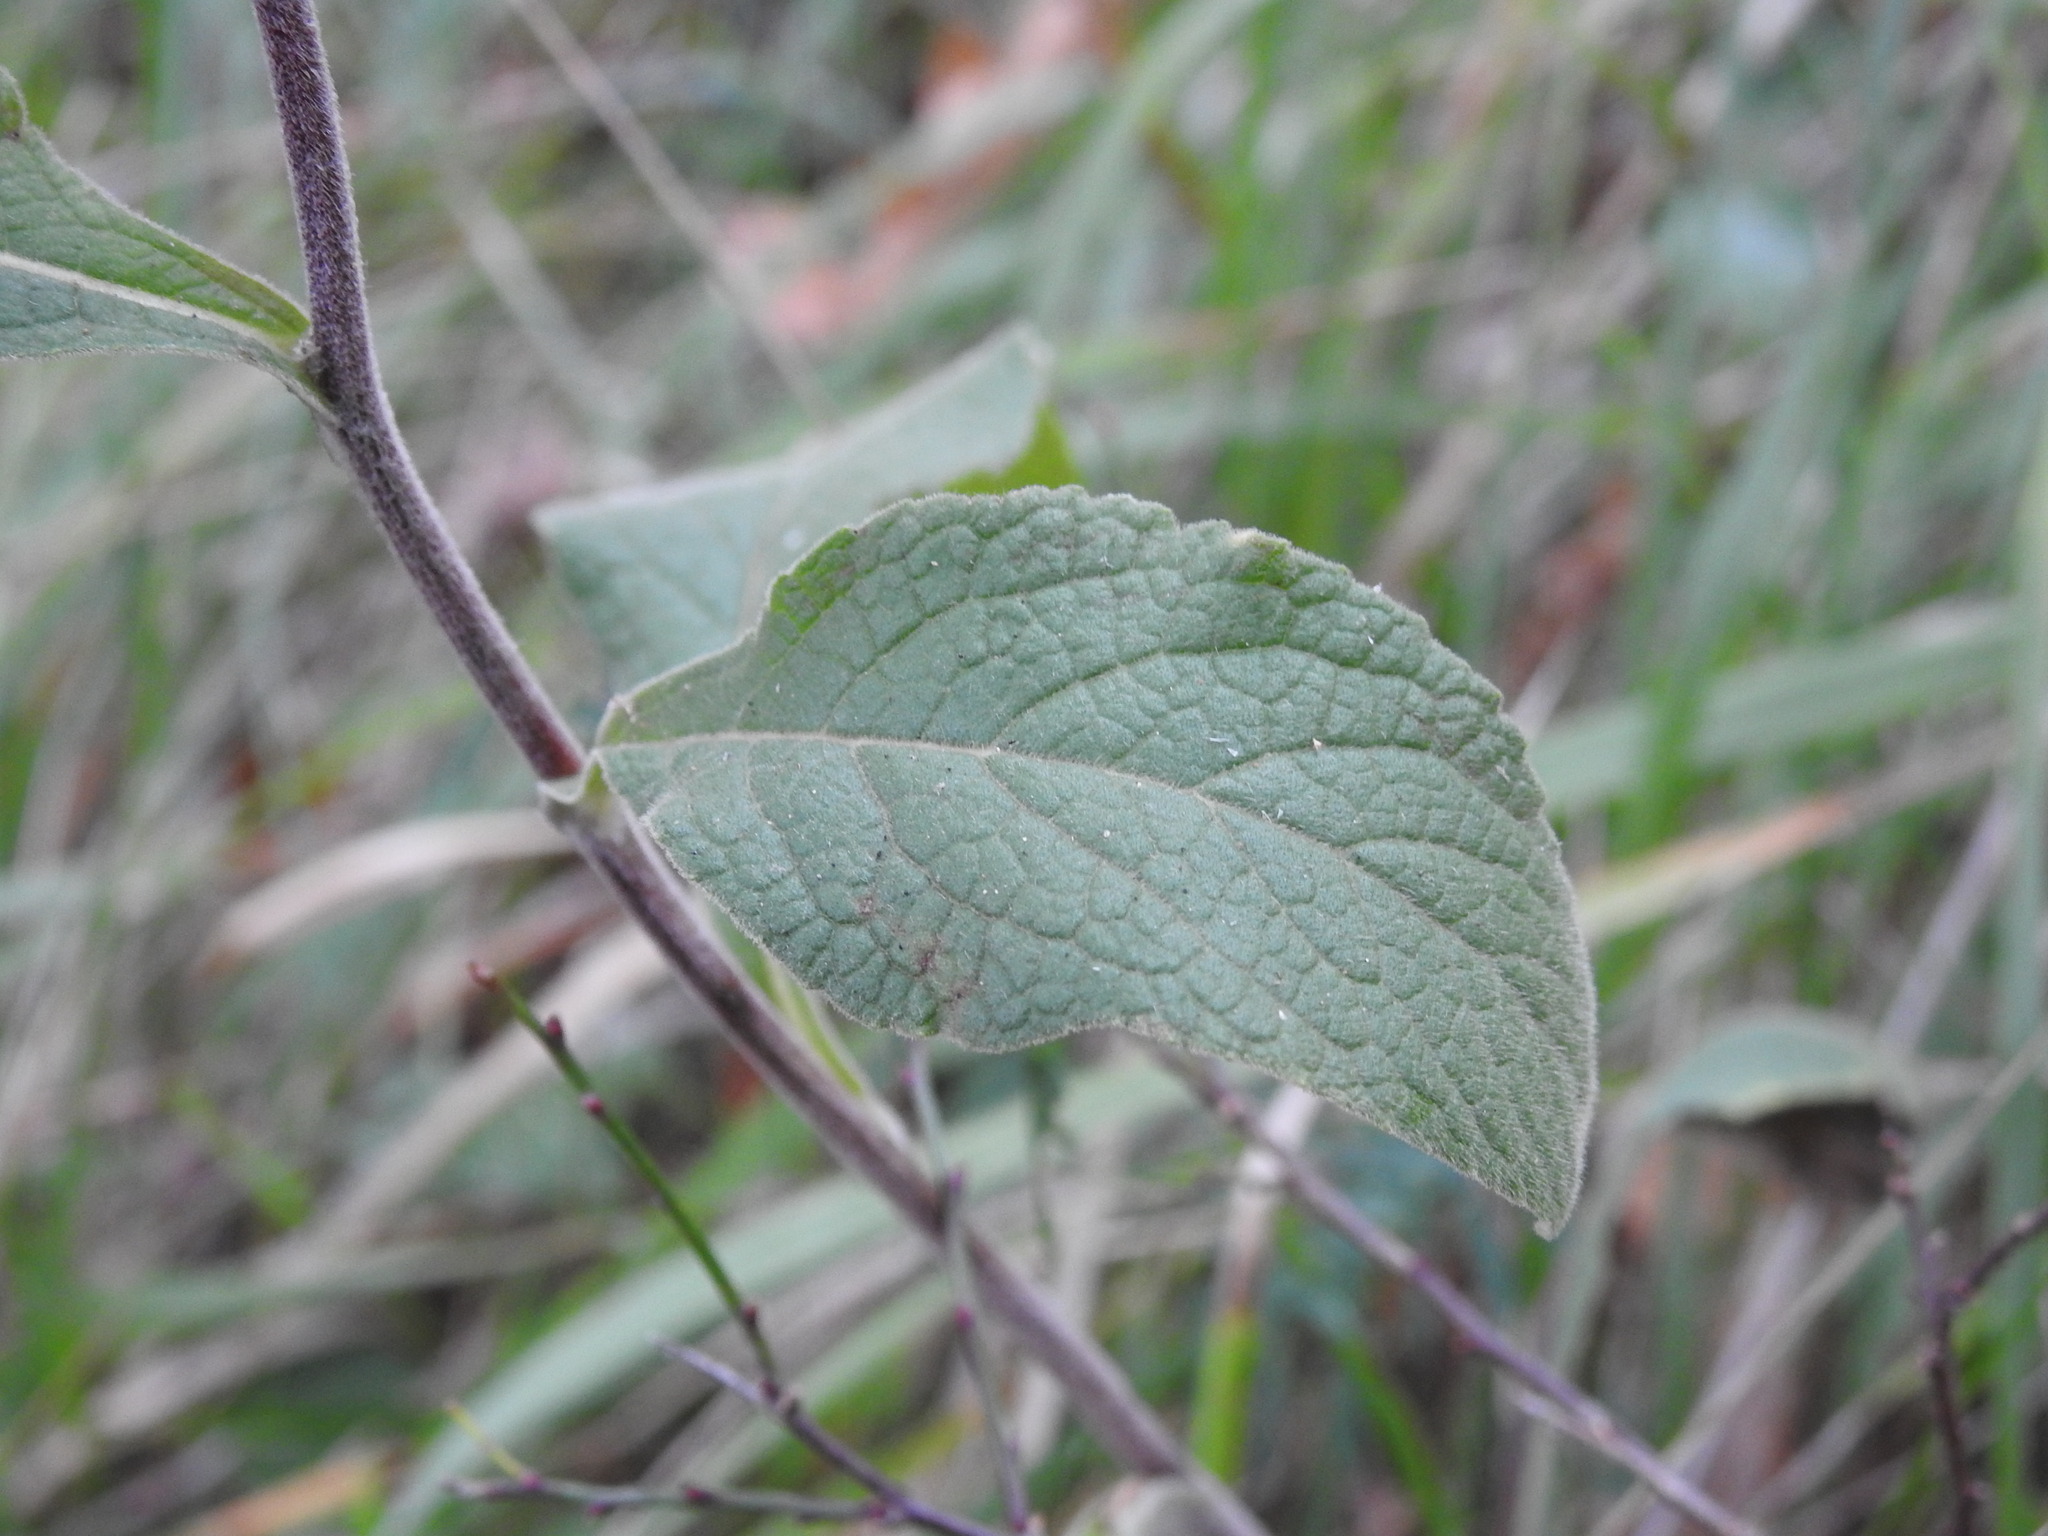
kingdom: Plantae
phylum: Tracheophyta
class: Magnoliopsida
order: Asterales
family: Asteraceae
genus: Pentanema
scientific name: Pentanema squarrosum
